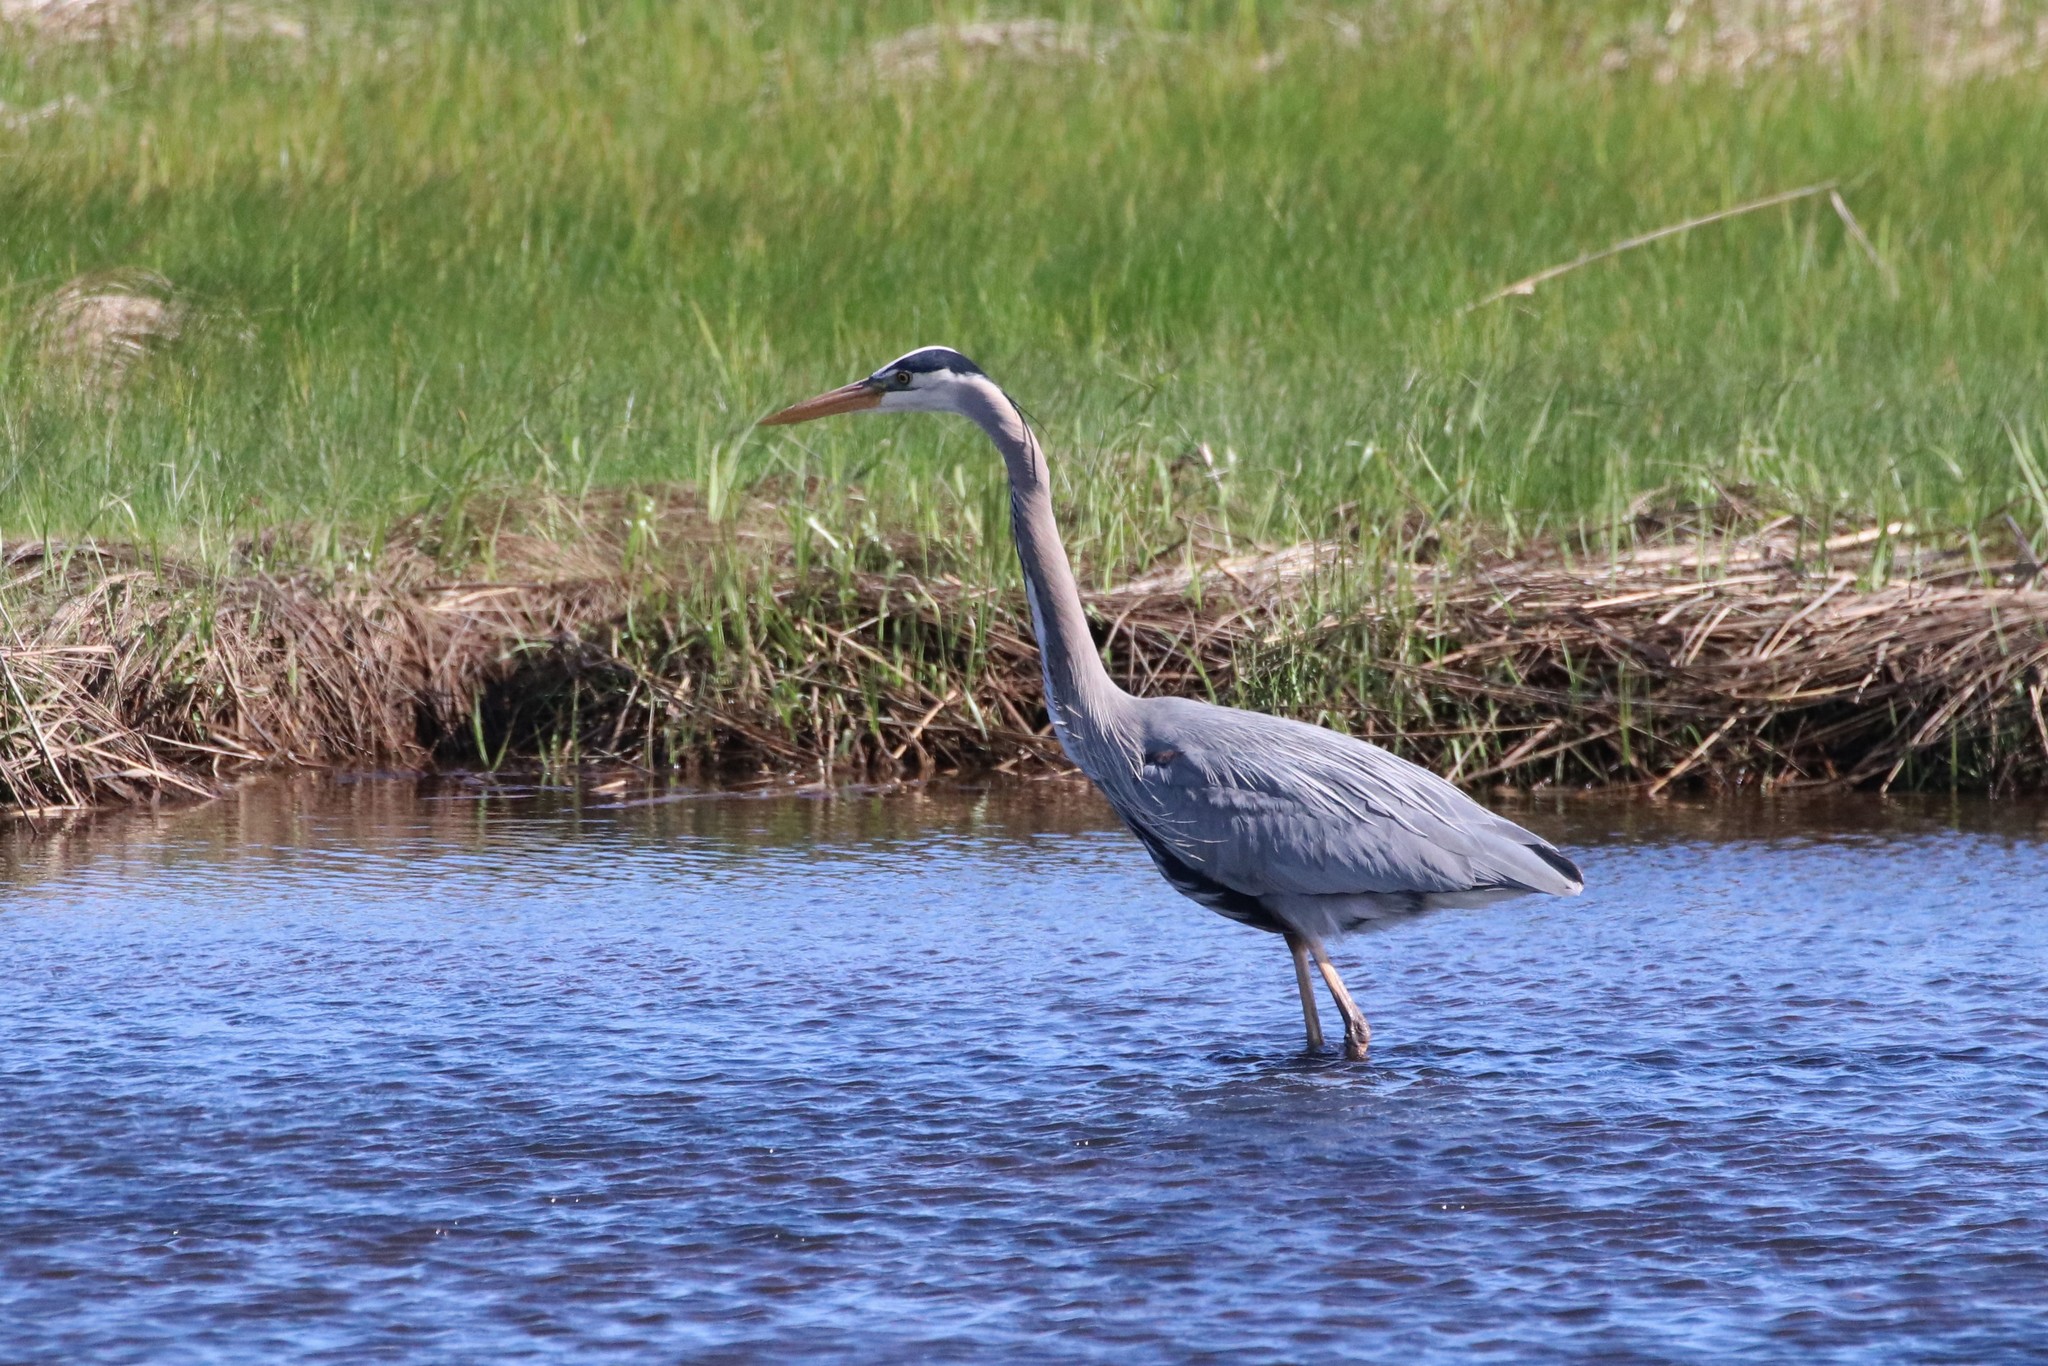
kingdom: Animalia
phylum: Chordata
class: Aves
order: Pelecaniformes
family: Ardeidae
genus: Ardea
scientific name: Ardea herodias
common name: Great blue heron
